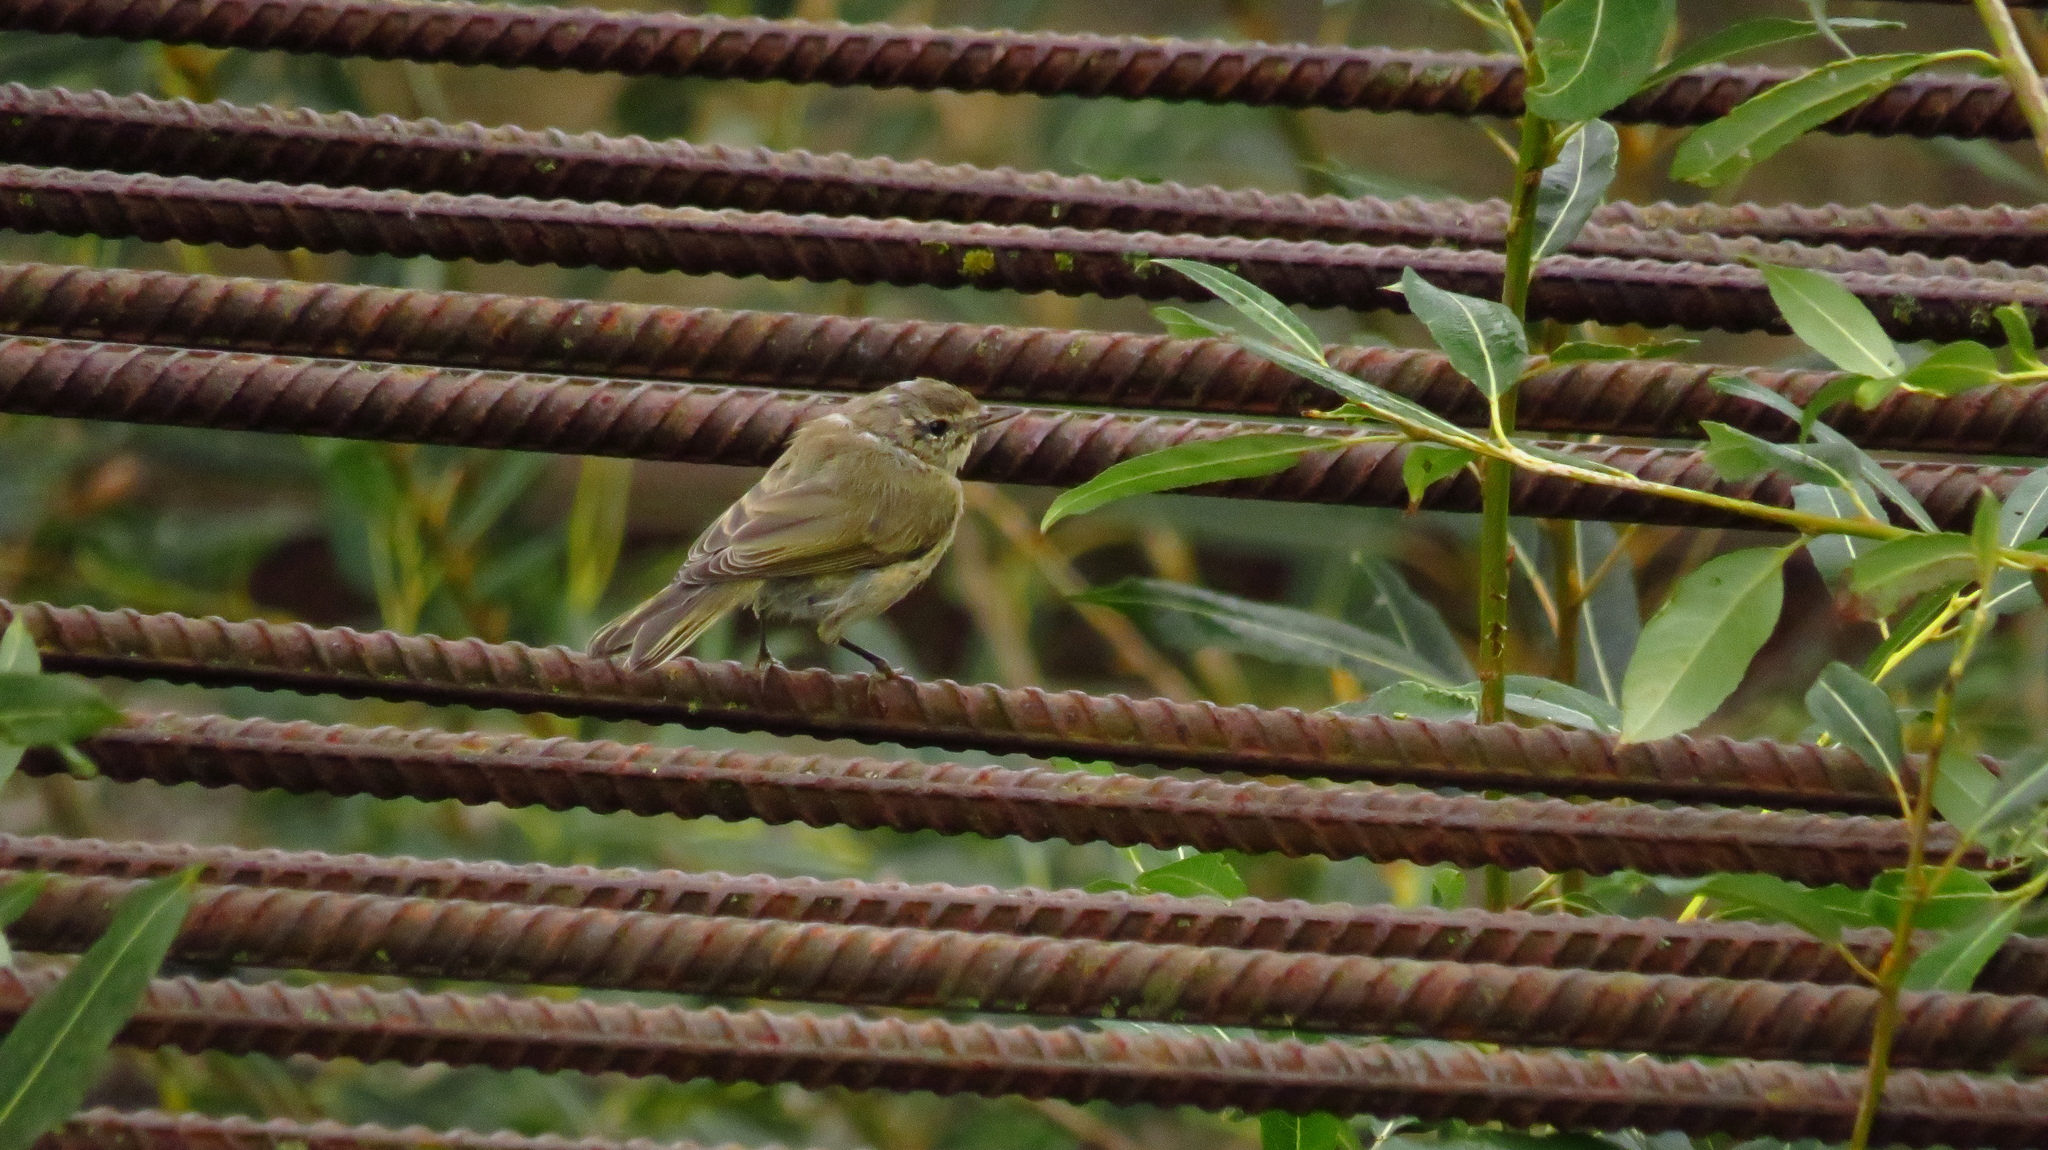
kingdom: Animalia
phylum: Chordata
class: Aves
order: Passeriformes
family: Phylloscopidae
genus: Phylloscopus
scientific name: Phylloscopus collybita
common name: Common chiffchaff
